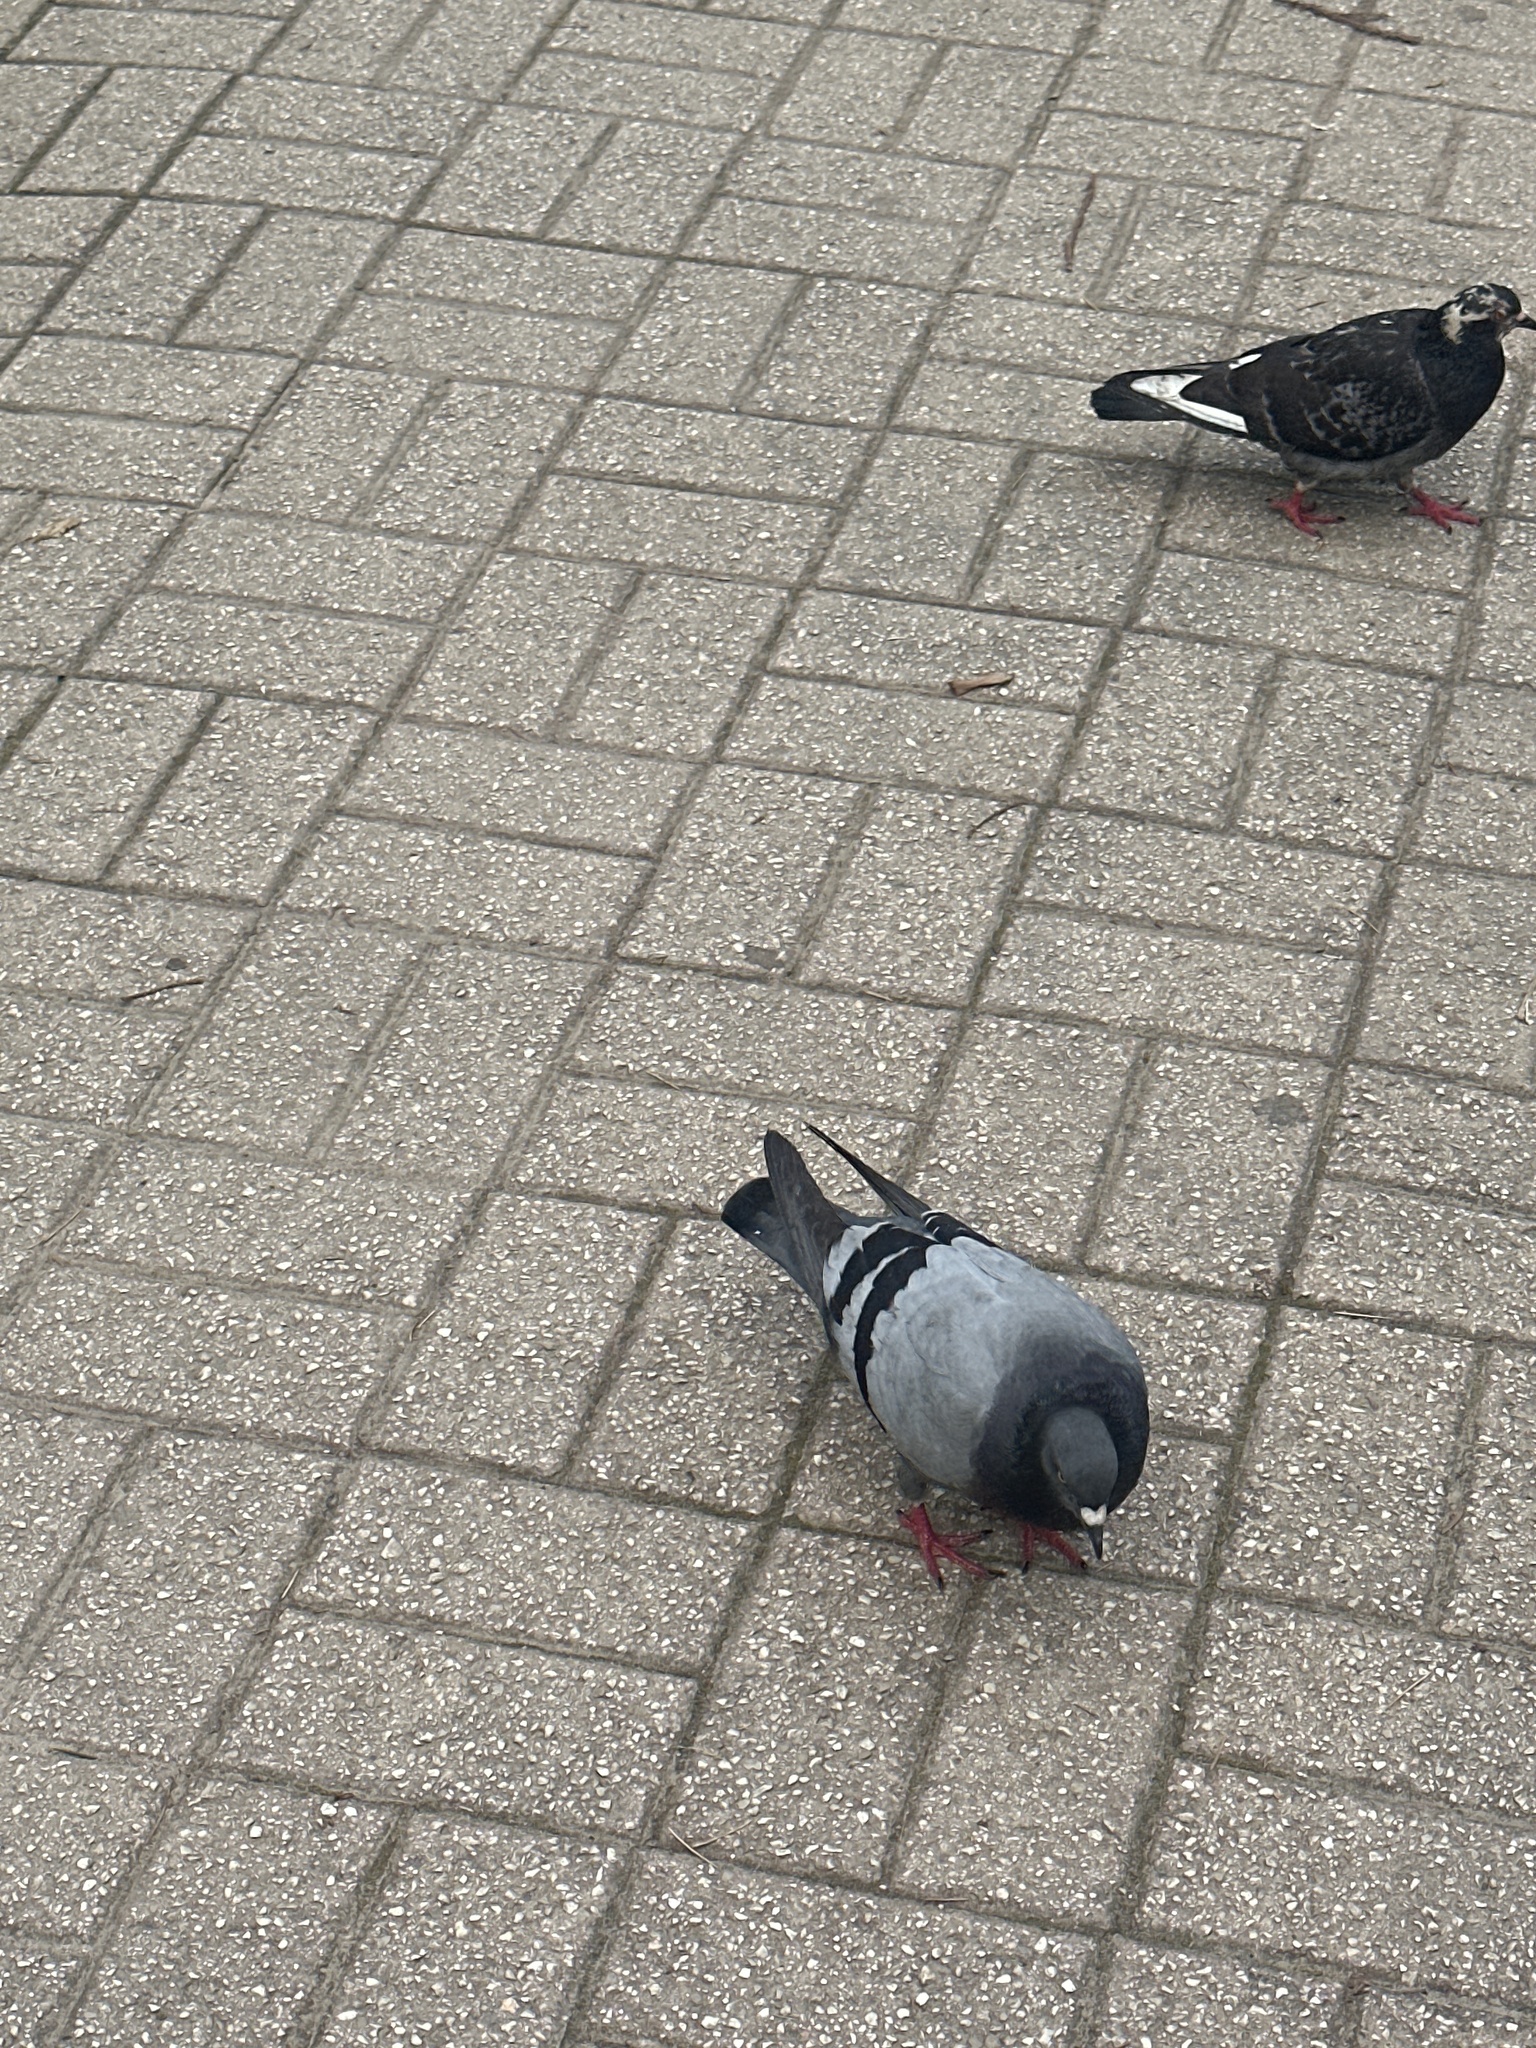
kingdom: Animalia
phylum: Chordata
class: Aves
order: Columbiformes
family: Columbidae
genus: Columba
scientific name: Columba livia
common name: Rock pigeon
